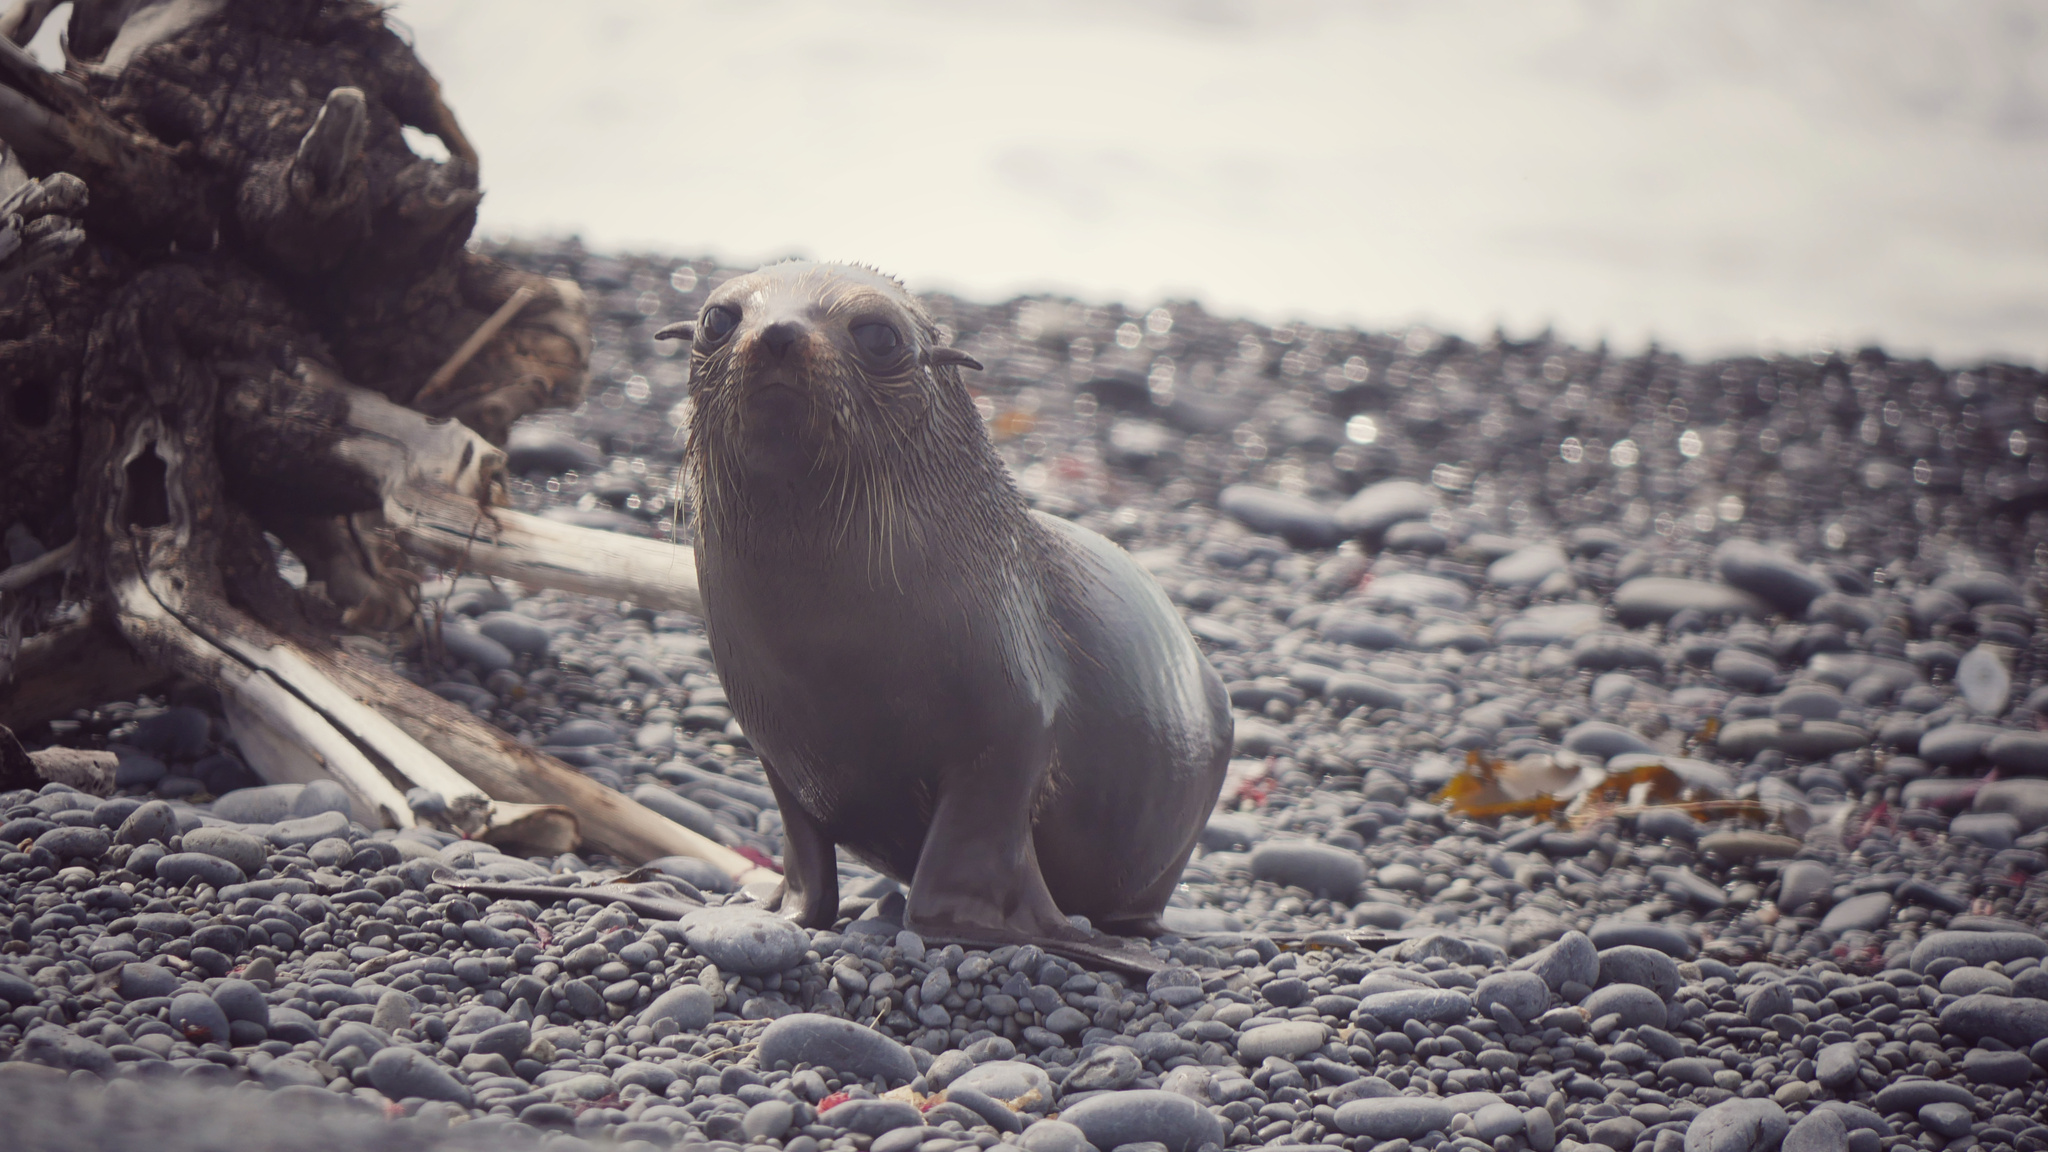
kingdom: Animalia
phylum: Chordata
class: Mammalia
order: Carnivora
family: Otariidae
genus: Arctocephalus
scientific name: Arctocephalus forsteri
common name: New zealand fur seal
